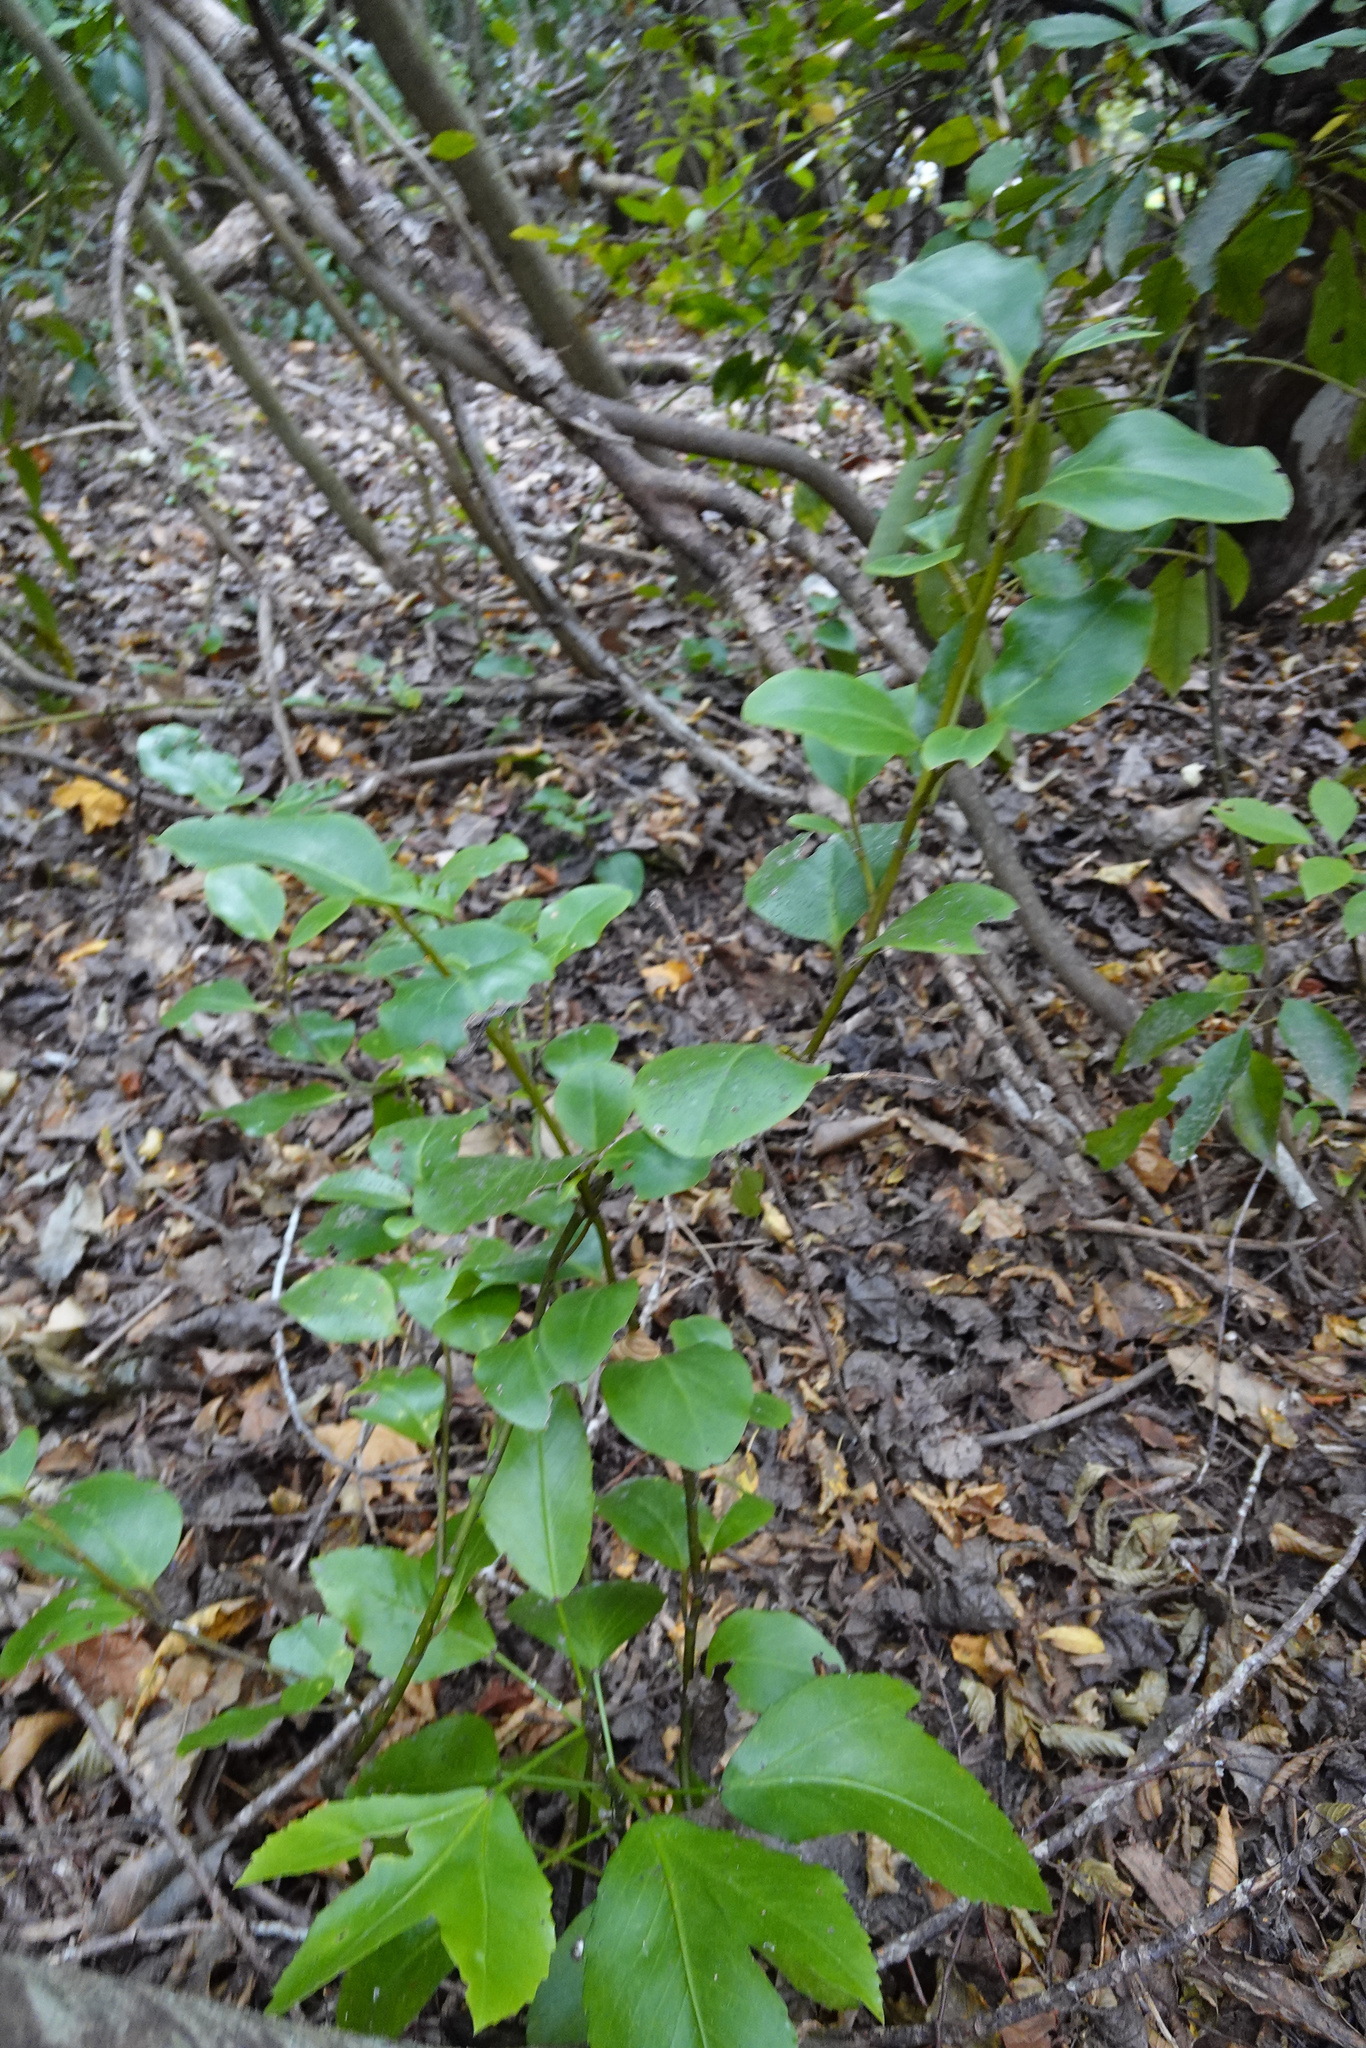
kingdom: Plantae
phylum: Tracheophyta
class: Magnoliopsida
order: Apiales
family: Griseliniaceae
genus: Griselinia
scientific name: Griselinia littoralis
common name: New zealand broadleaf
